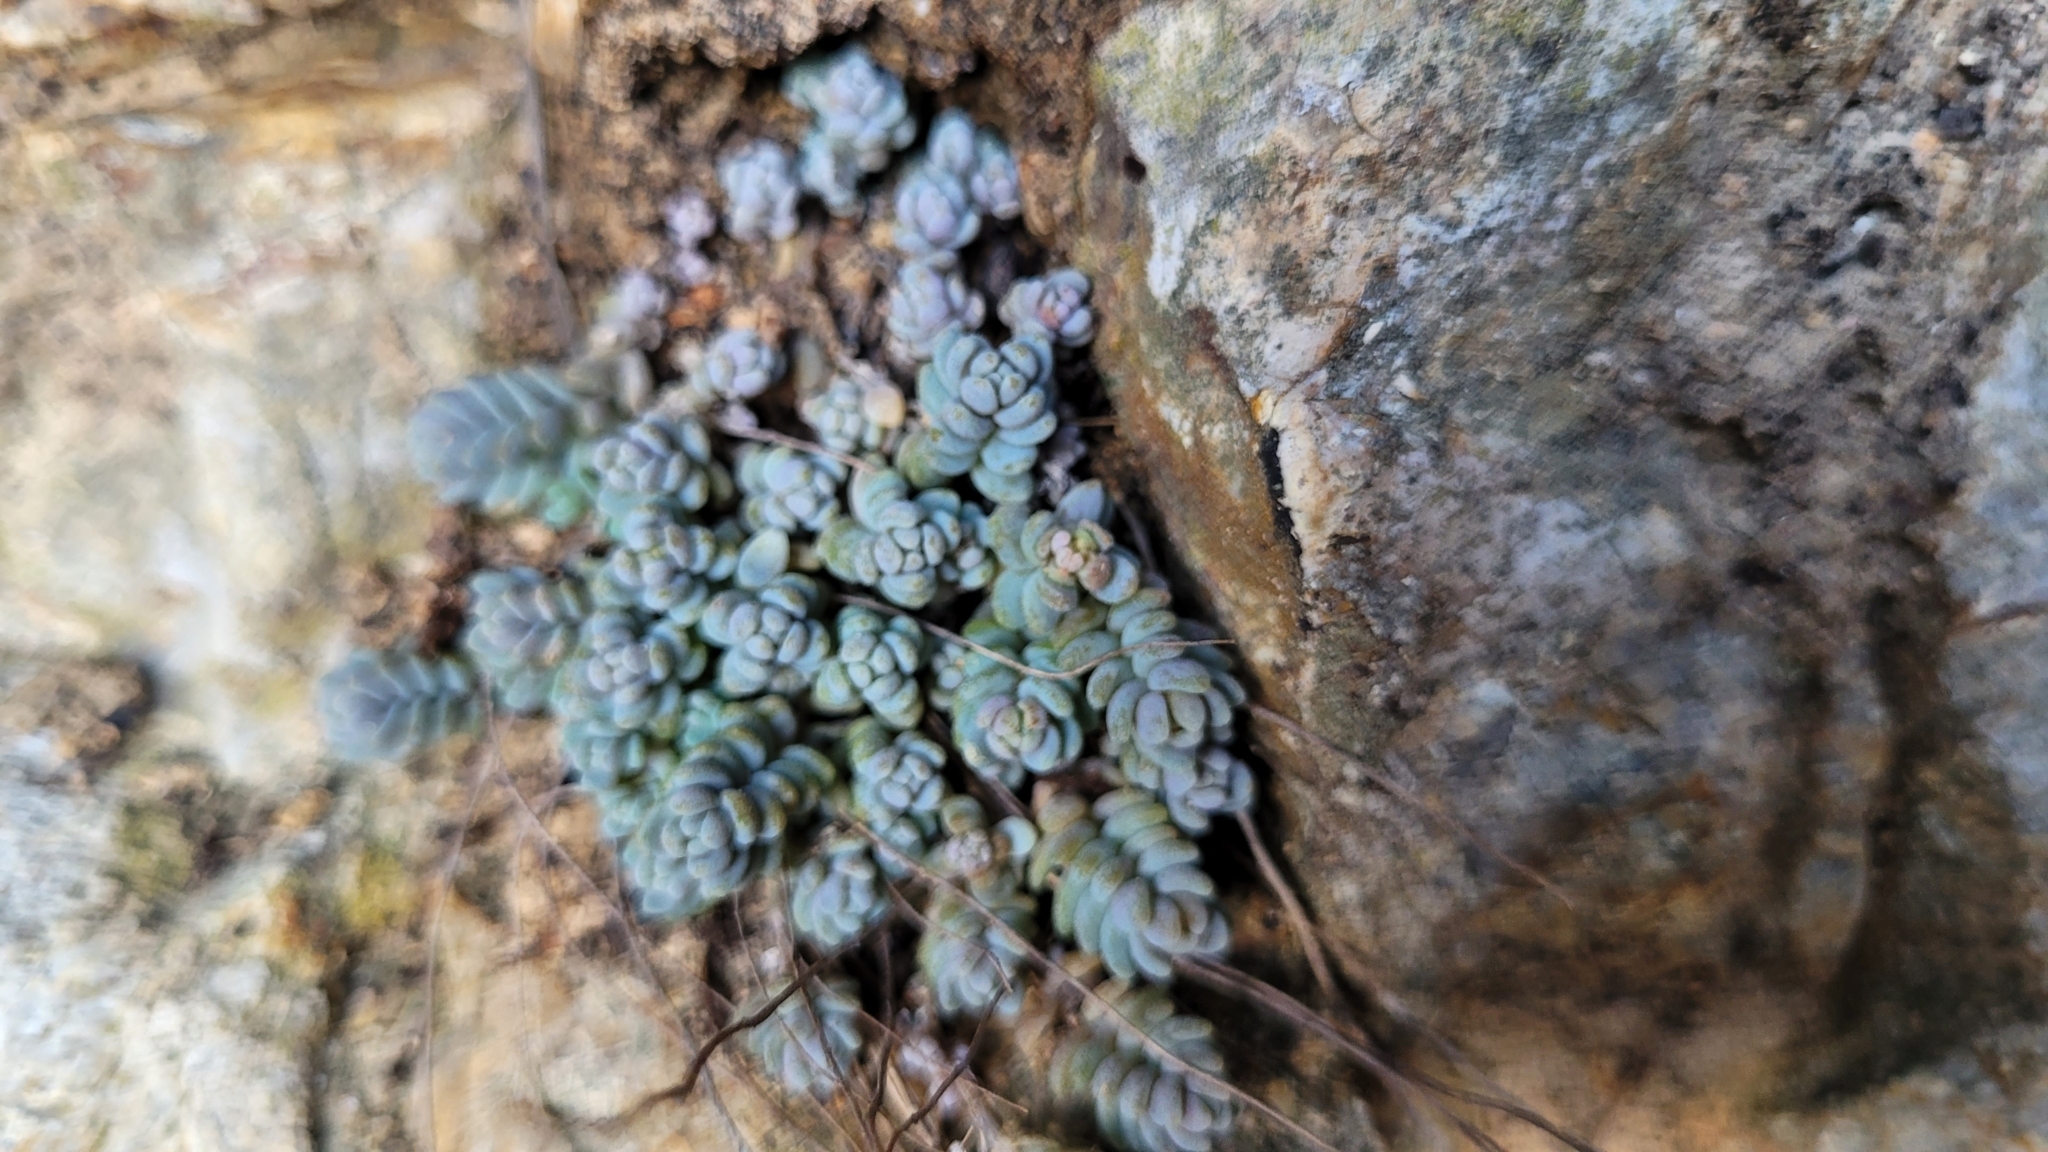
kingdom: Plantae
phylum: Tracheophyta
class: Magnoliopsida
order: Saxifragales
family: Crassulaceae
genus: Sedum
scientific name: Sedum dasyphyllum
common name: Thick-leaf stonecrop
